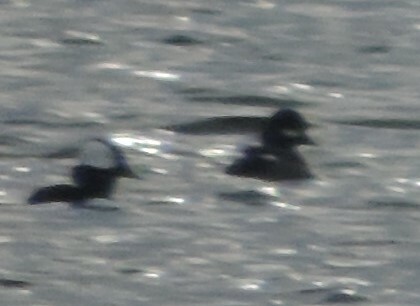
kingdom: Animalia
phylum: Chordata
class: Aves
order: Anseriformes
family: Anatidae
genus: Bucephala
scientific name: Bucephala albeola
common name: Bufflehead
